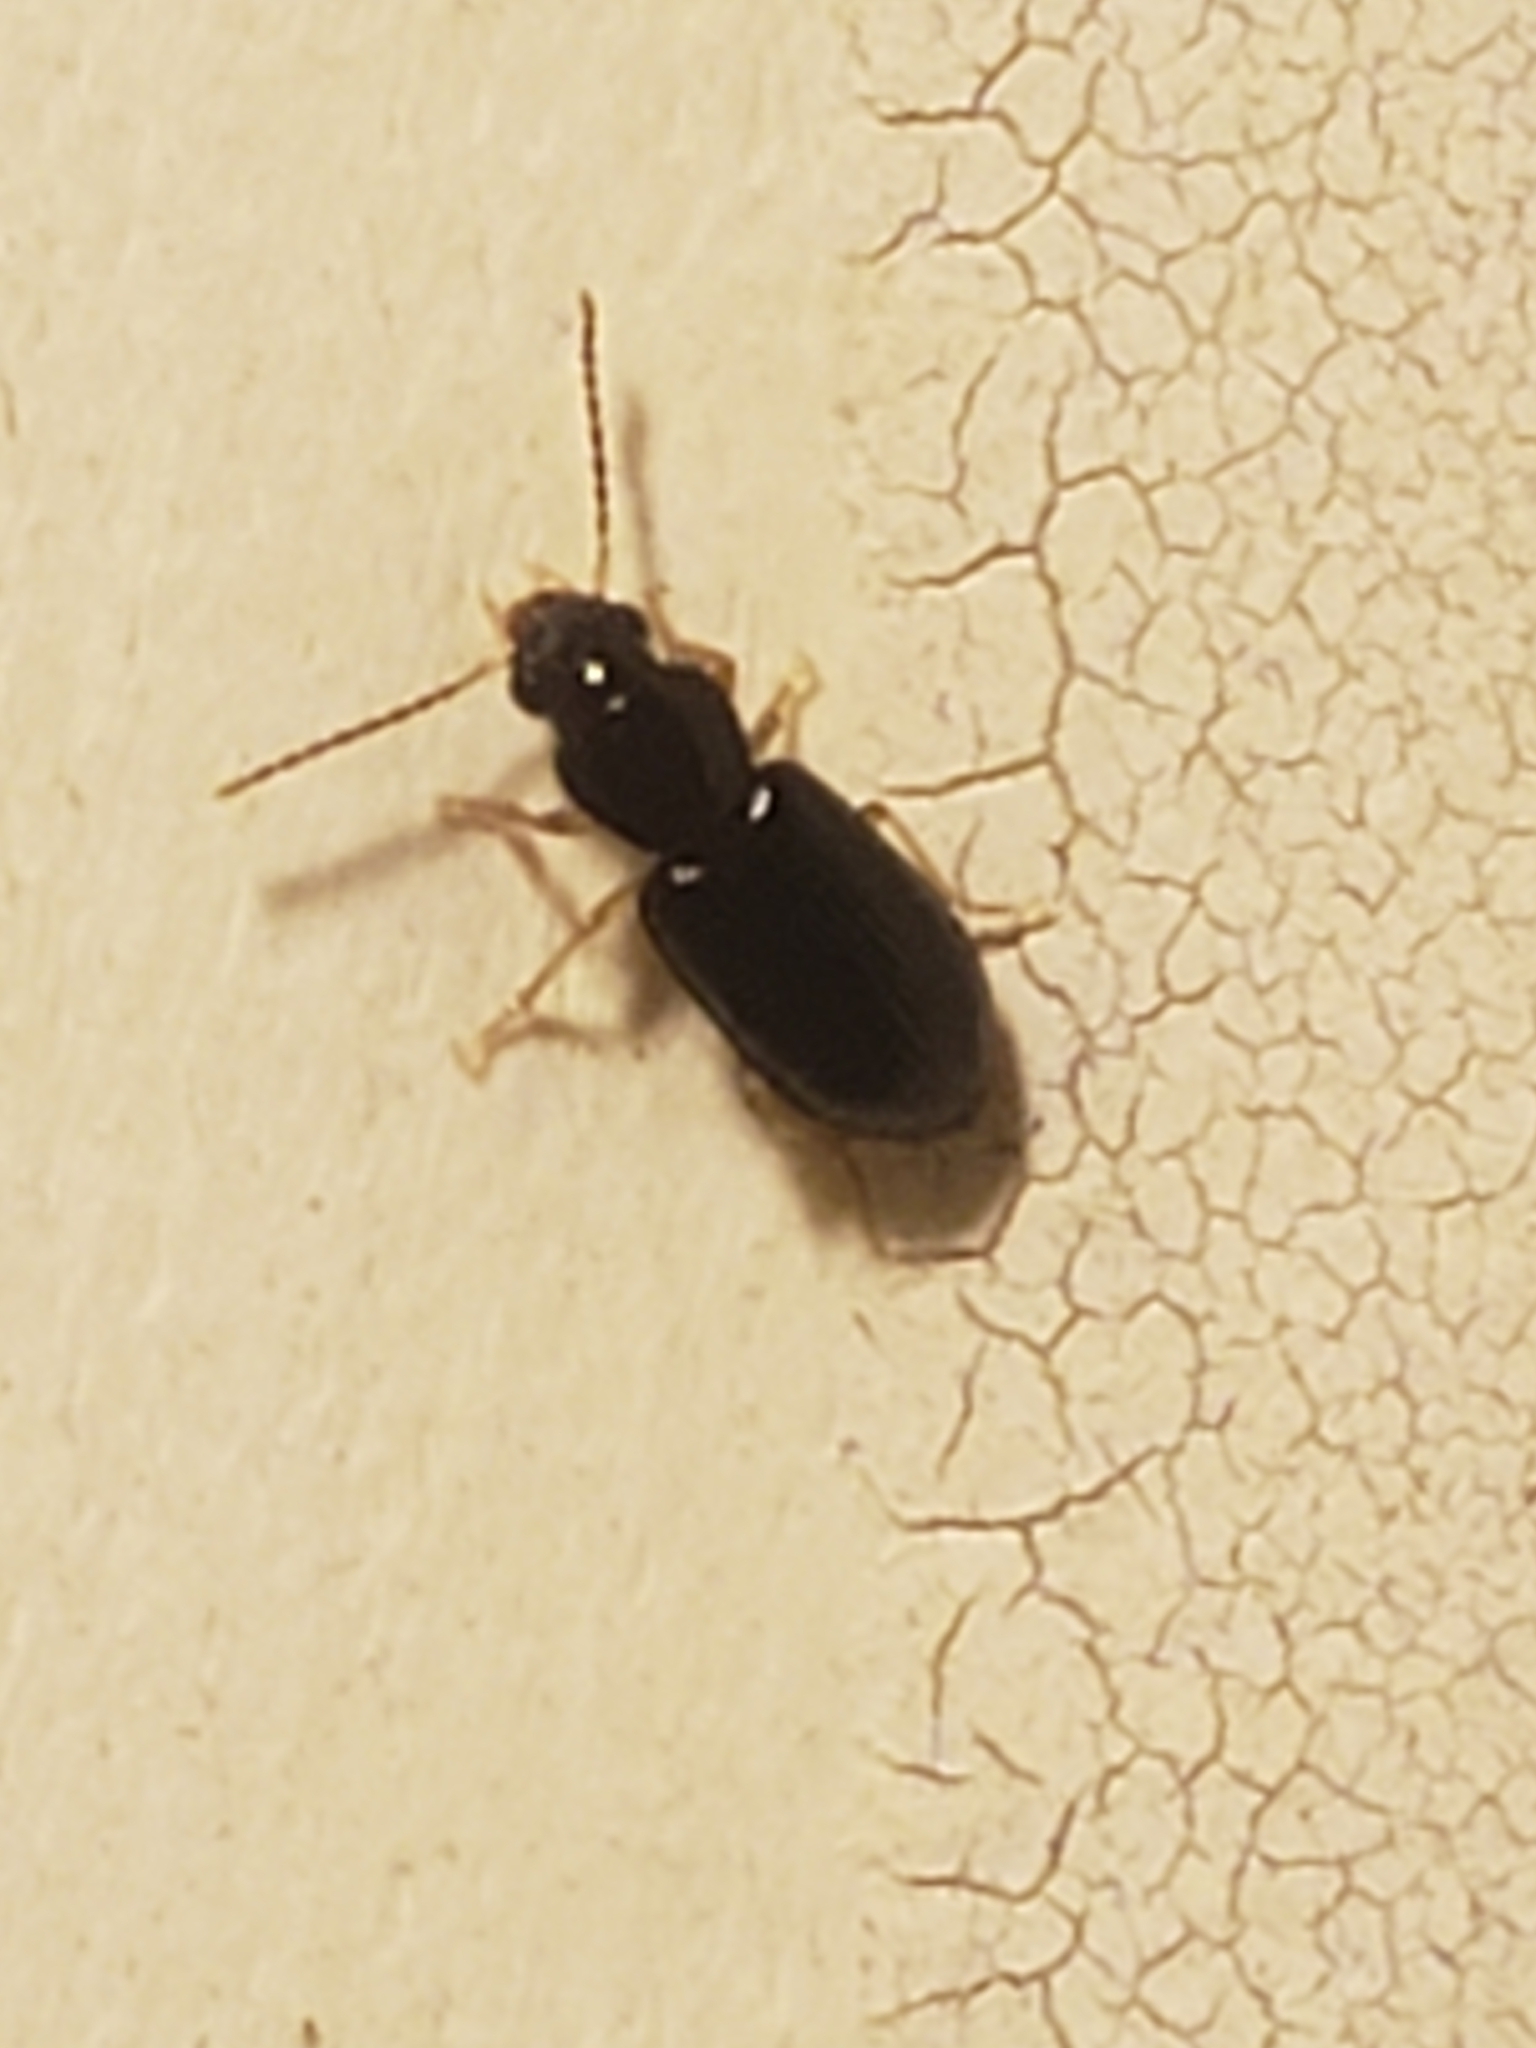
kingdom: Animalia
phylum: Arthropoda
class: Insecta
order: Coleoptera
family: Carabidae
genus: Stenolophus
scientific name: Stenolophus ochropezus
